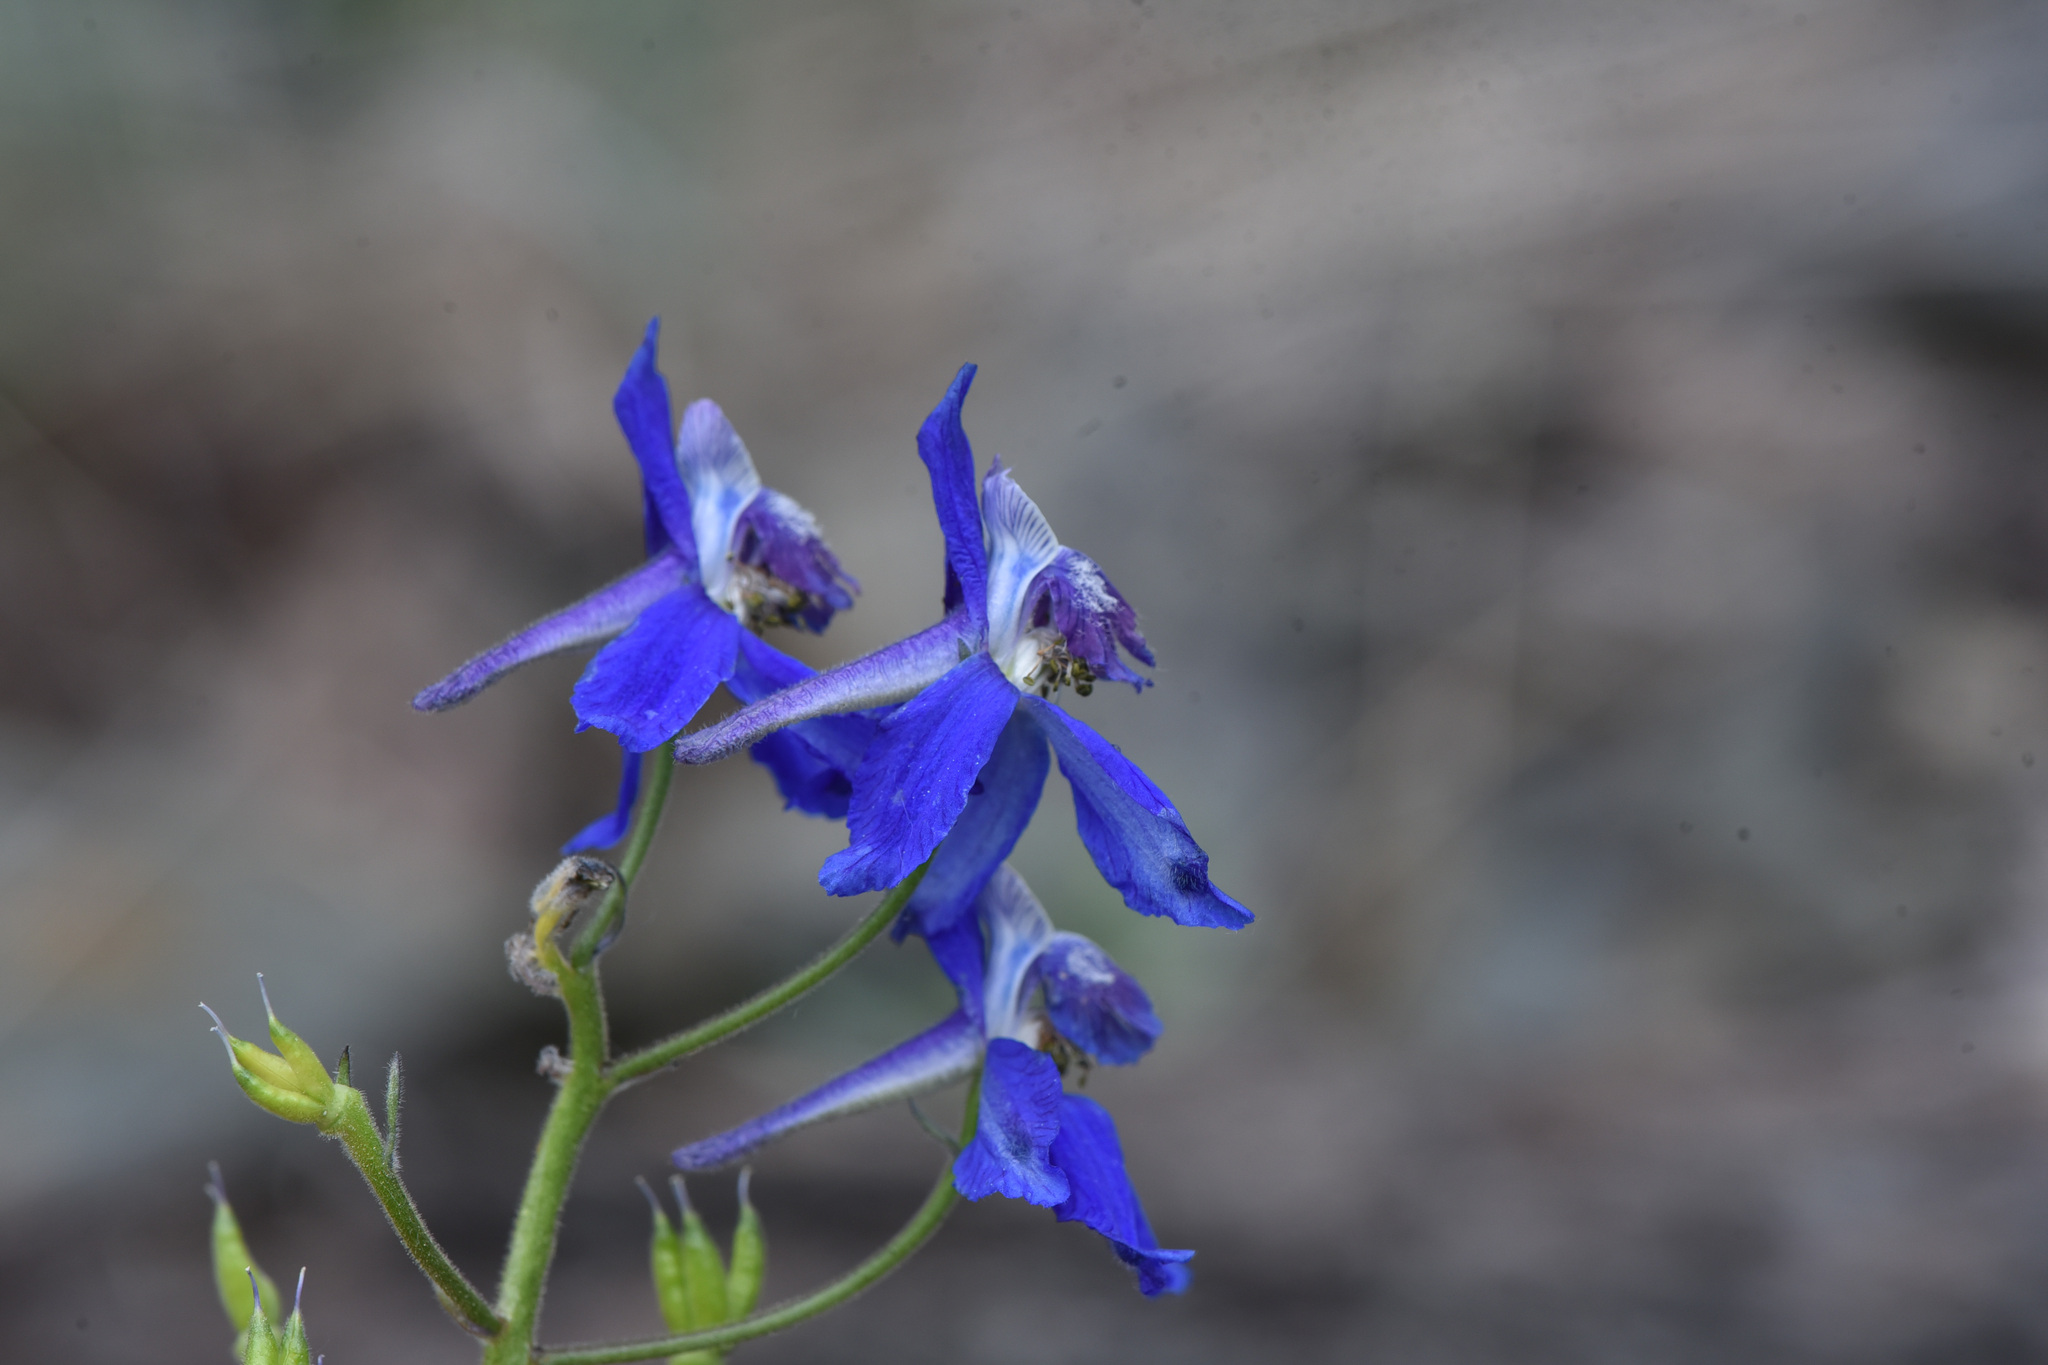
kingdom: Plantae
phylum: Tracheophyta
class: Magnoliopsida
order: Ranunculales
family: Ranunculaceae
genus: Delphinium
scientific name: Delphinium nuttallianum
